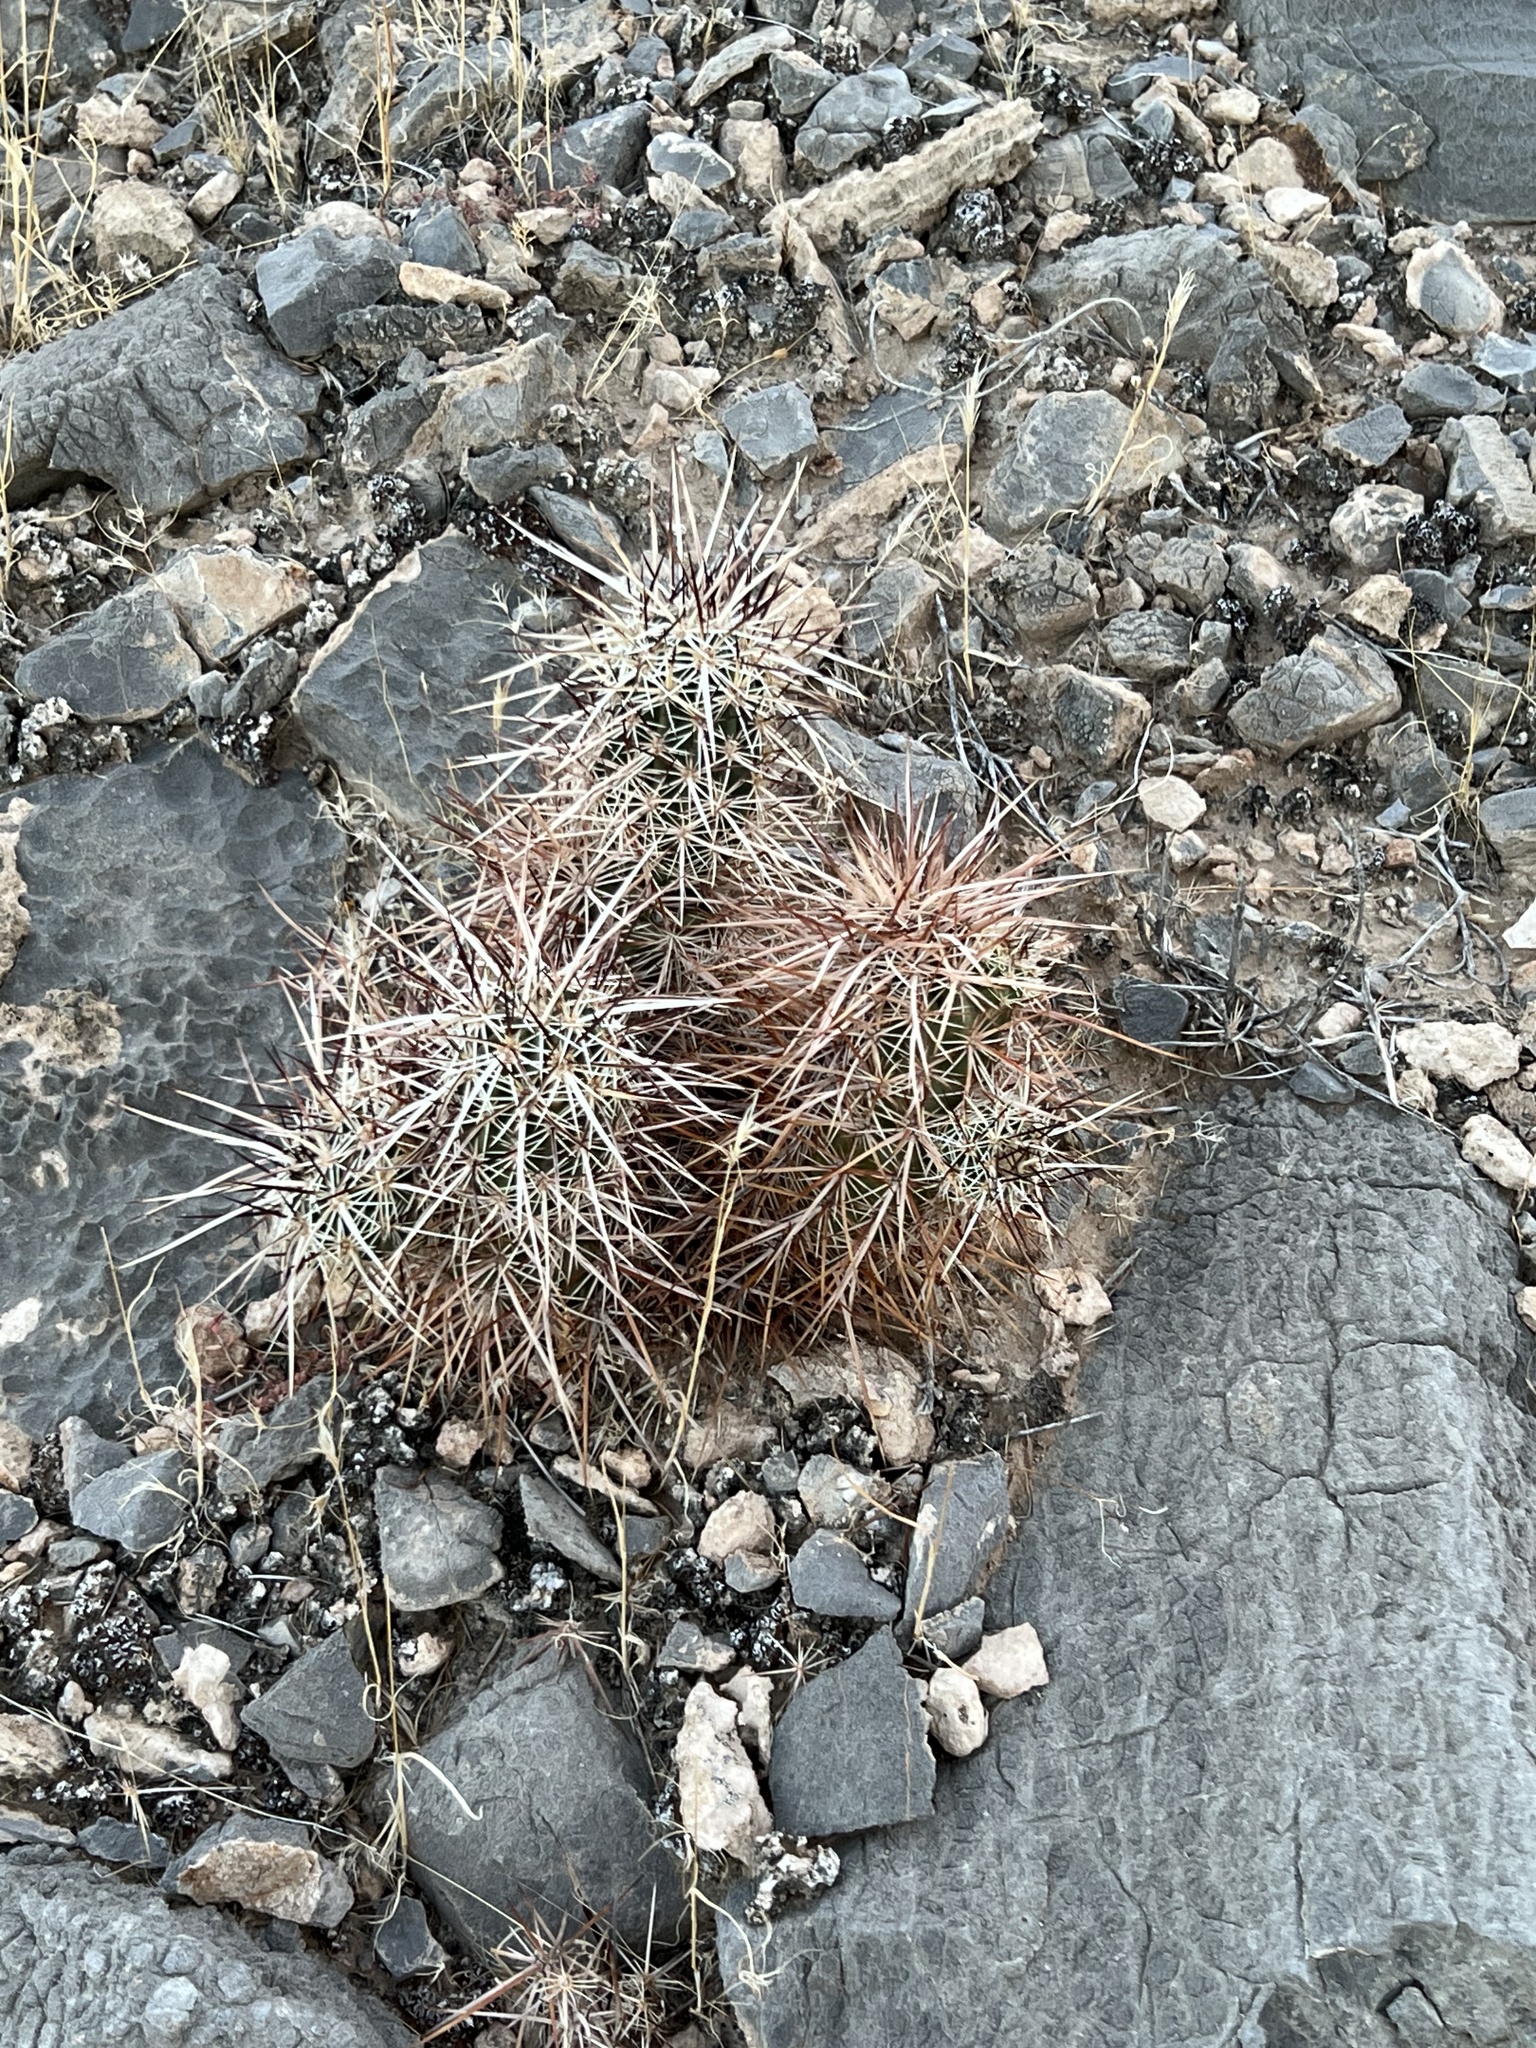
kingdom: Plantae
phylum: Tracheophyta
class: Magnoliopsida
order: Caryophyllales
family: Cactaceae
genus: Echinocereus
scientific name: Echinocereus engelmannii
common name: Engelmann's hedgehog cactus
